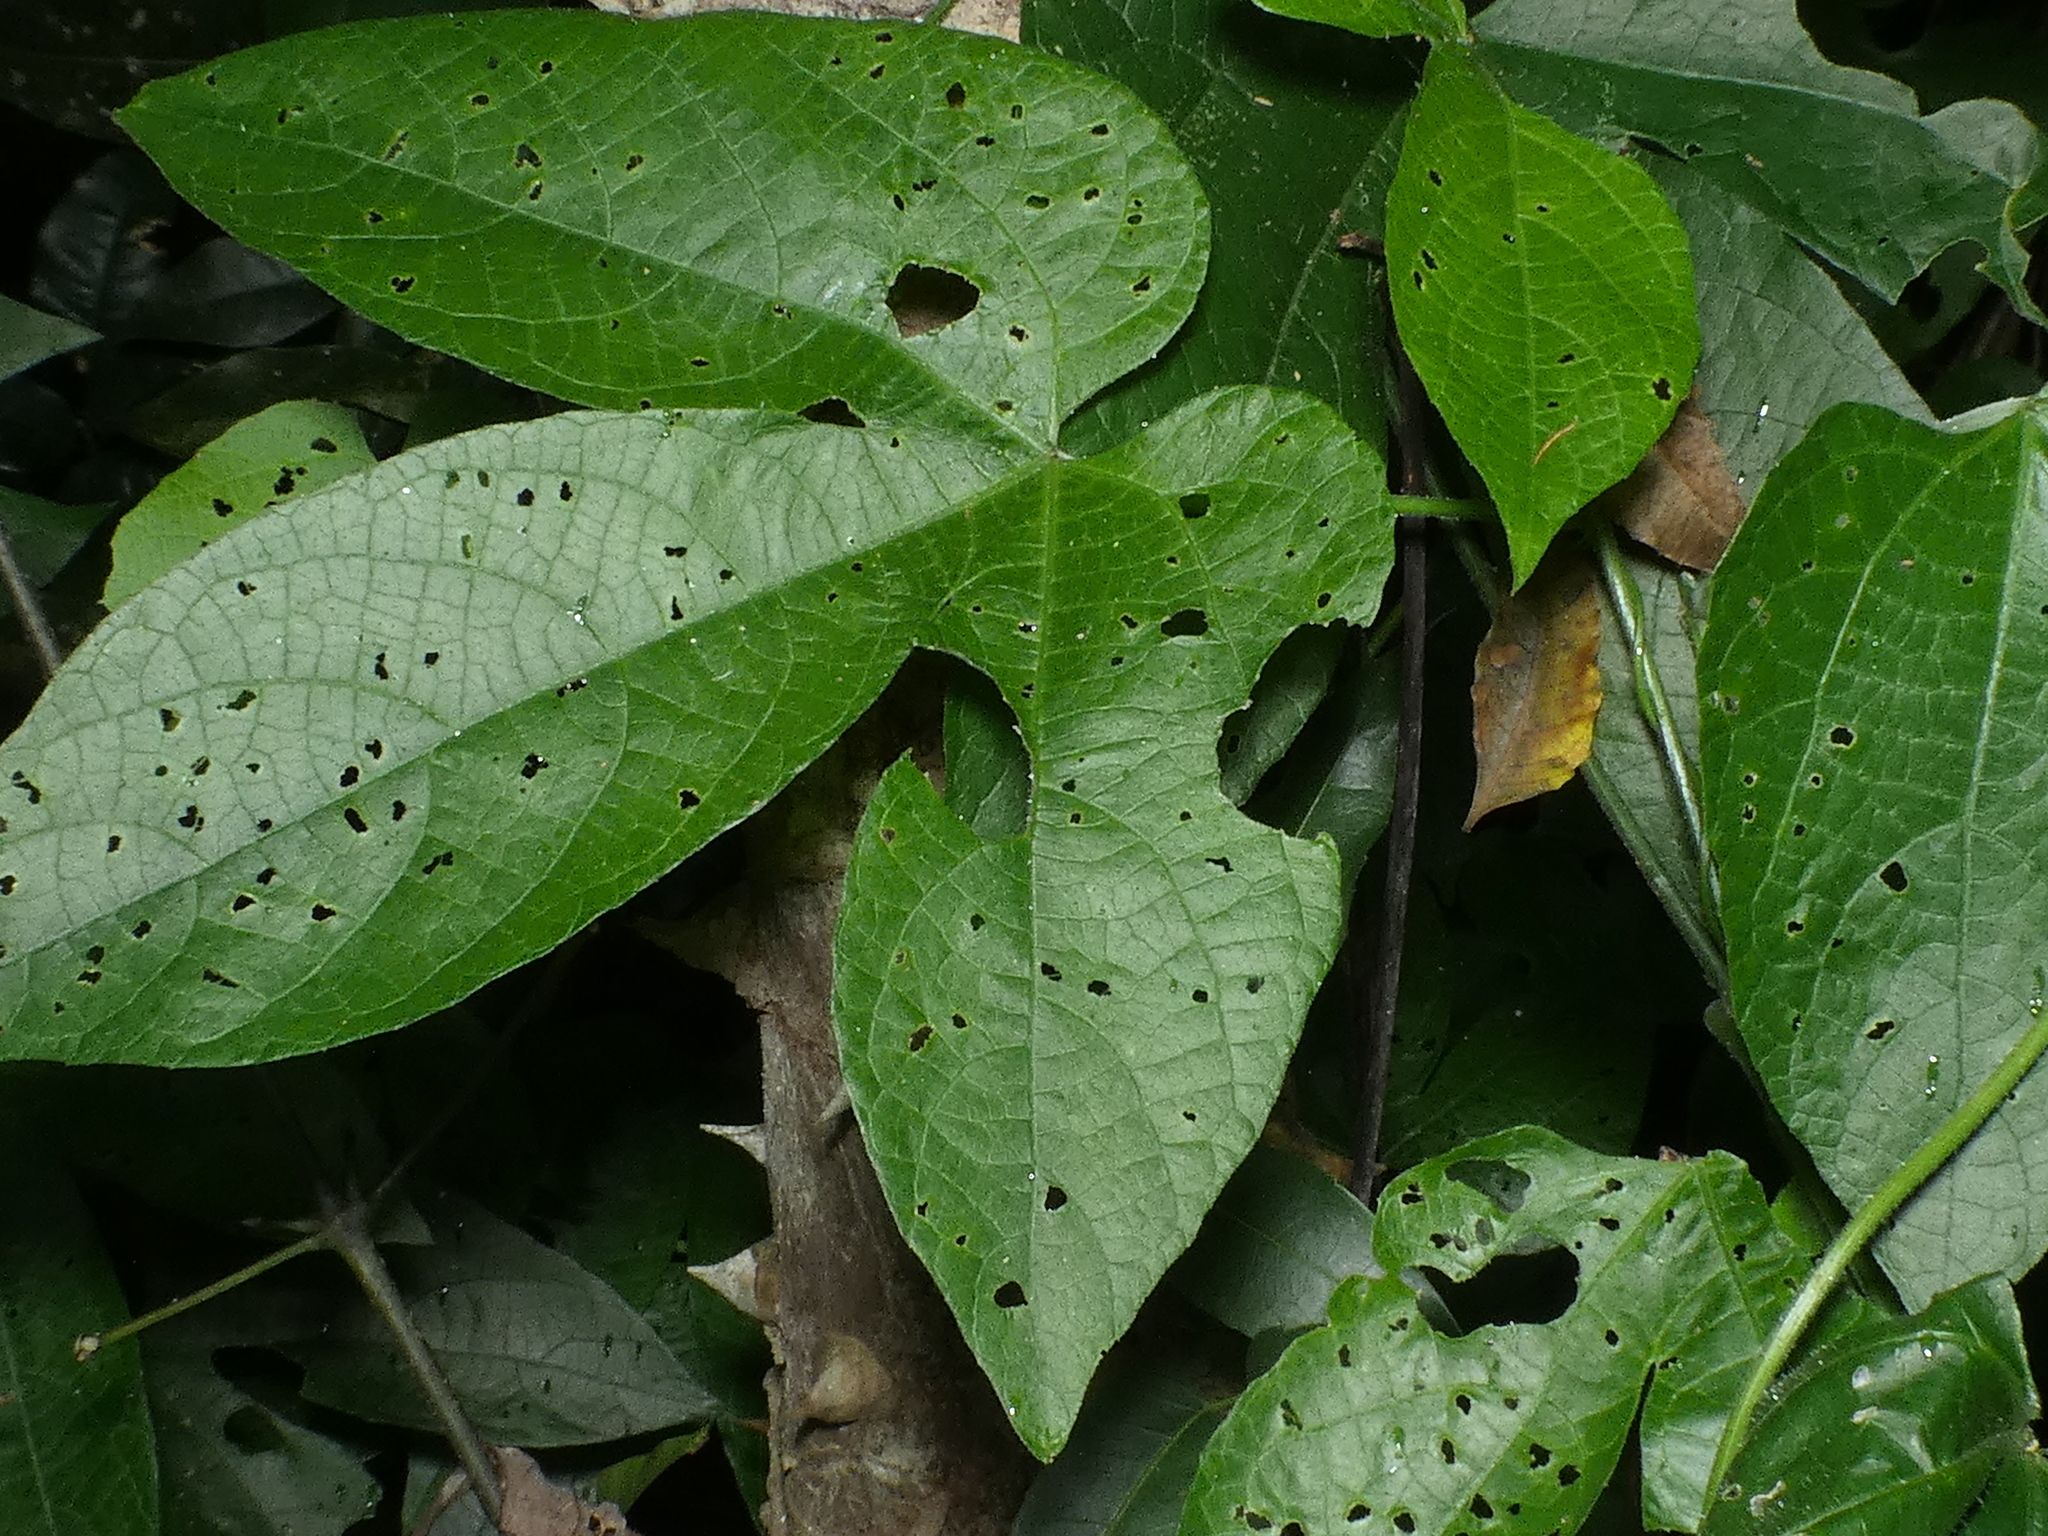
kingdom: Animalia
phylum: Arthropoda
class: Insecta
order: Lepidoptera
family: Nymphalidae
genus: Hamadryas
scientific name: Hamadryas feronia
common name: Variable cracker
